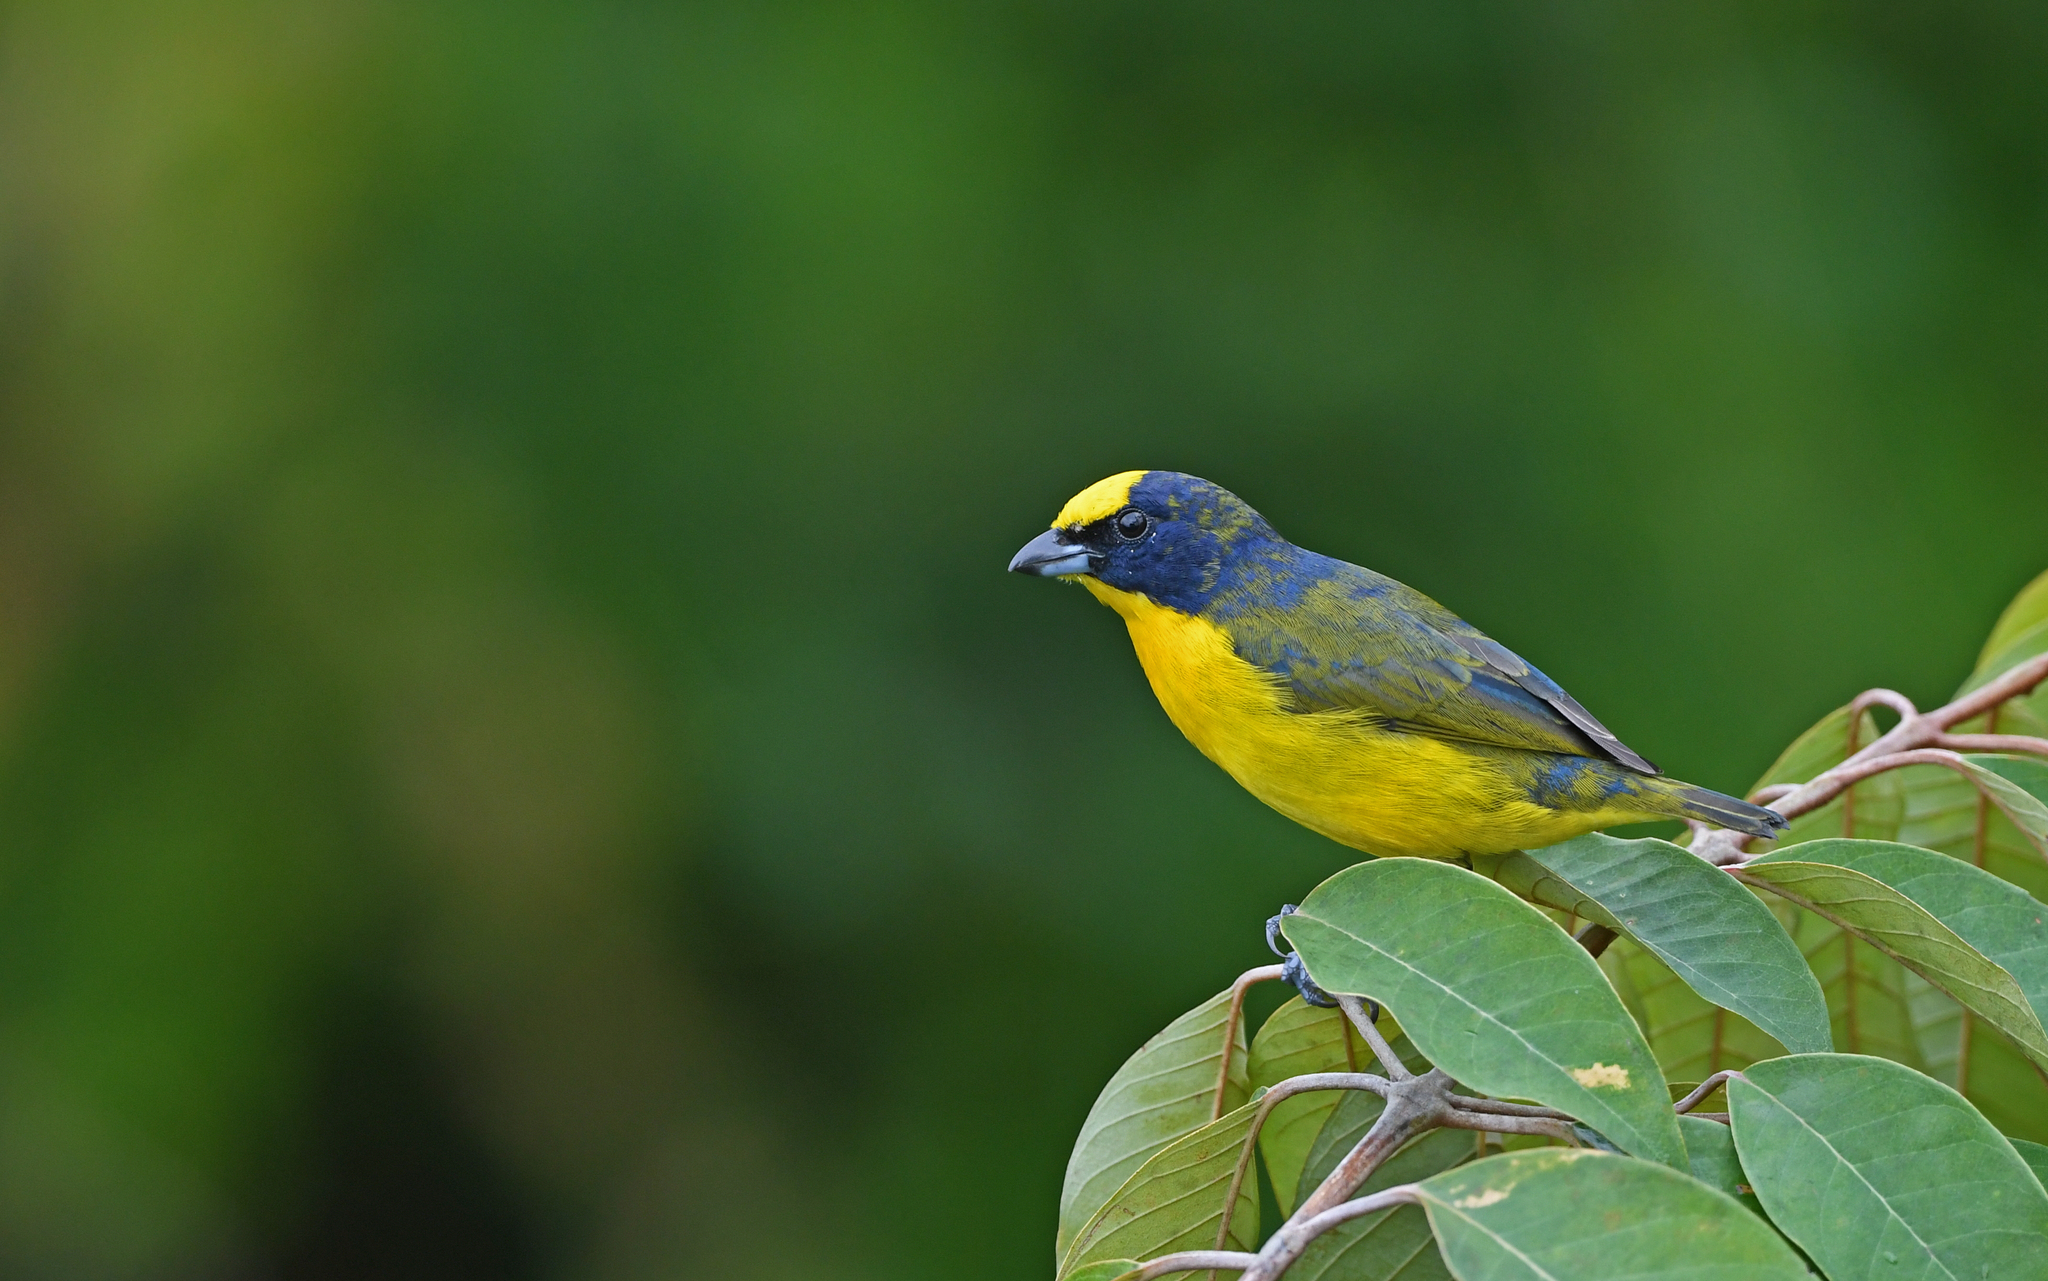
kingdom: Animalia
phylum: Chordata
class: Aves
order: Passeriformes
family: Fringillidae
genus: Euphonia
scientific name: Euphonia laniirostris
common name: Thick-billed euphonia
